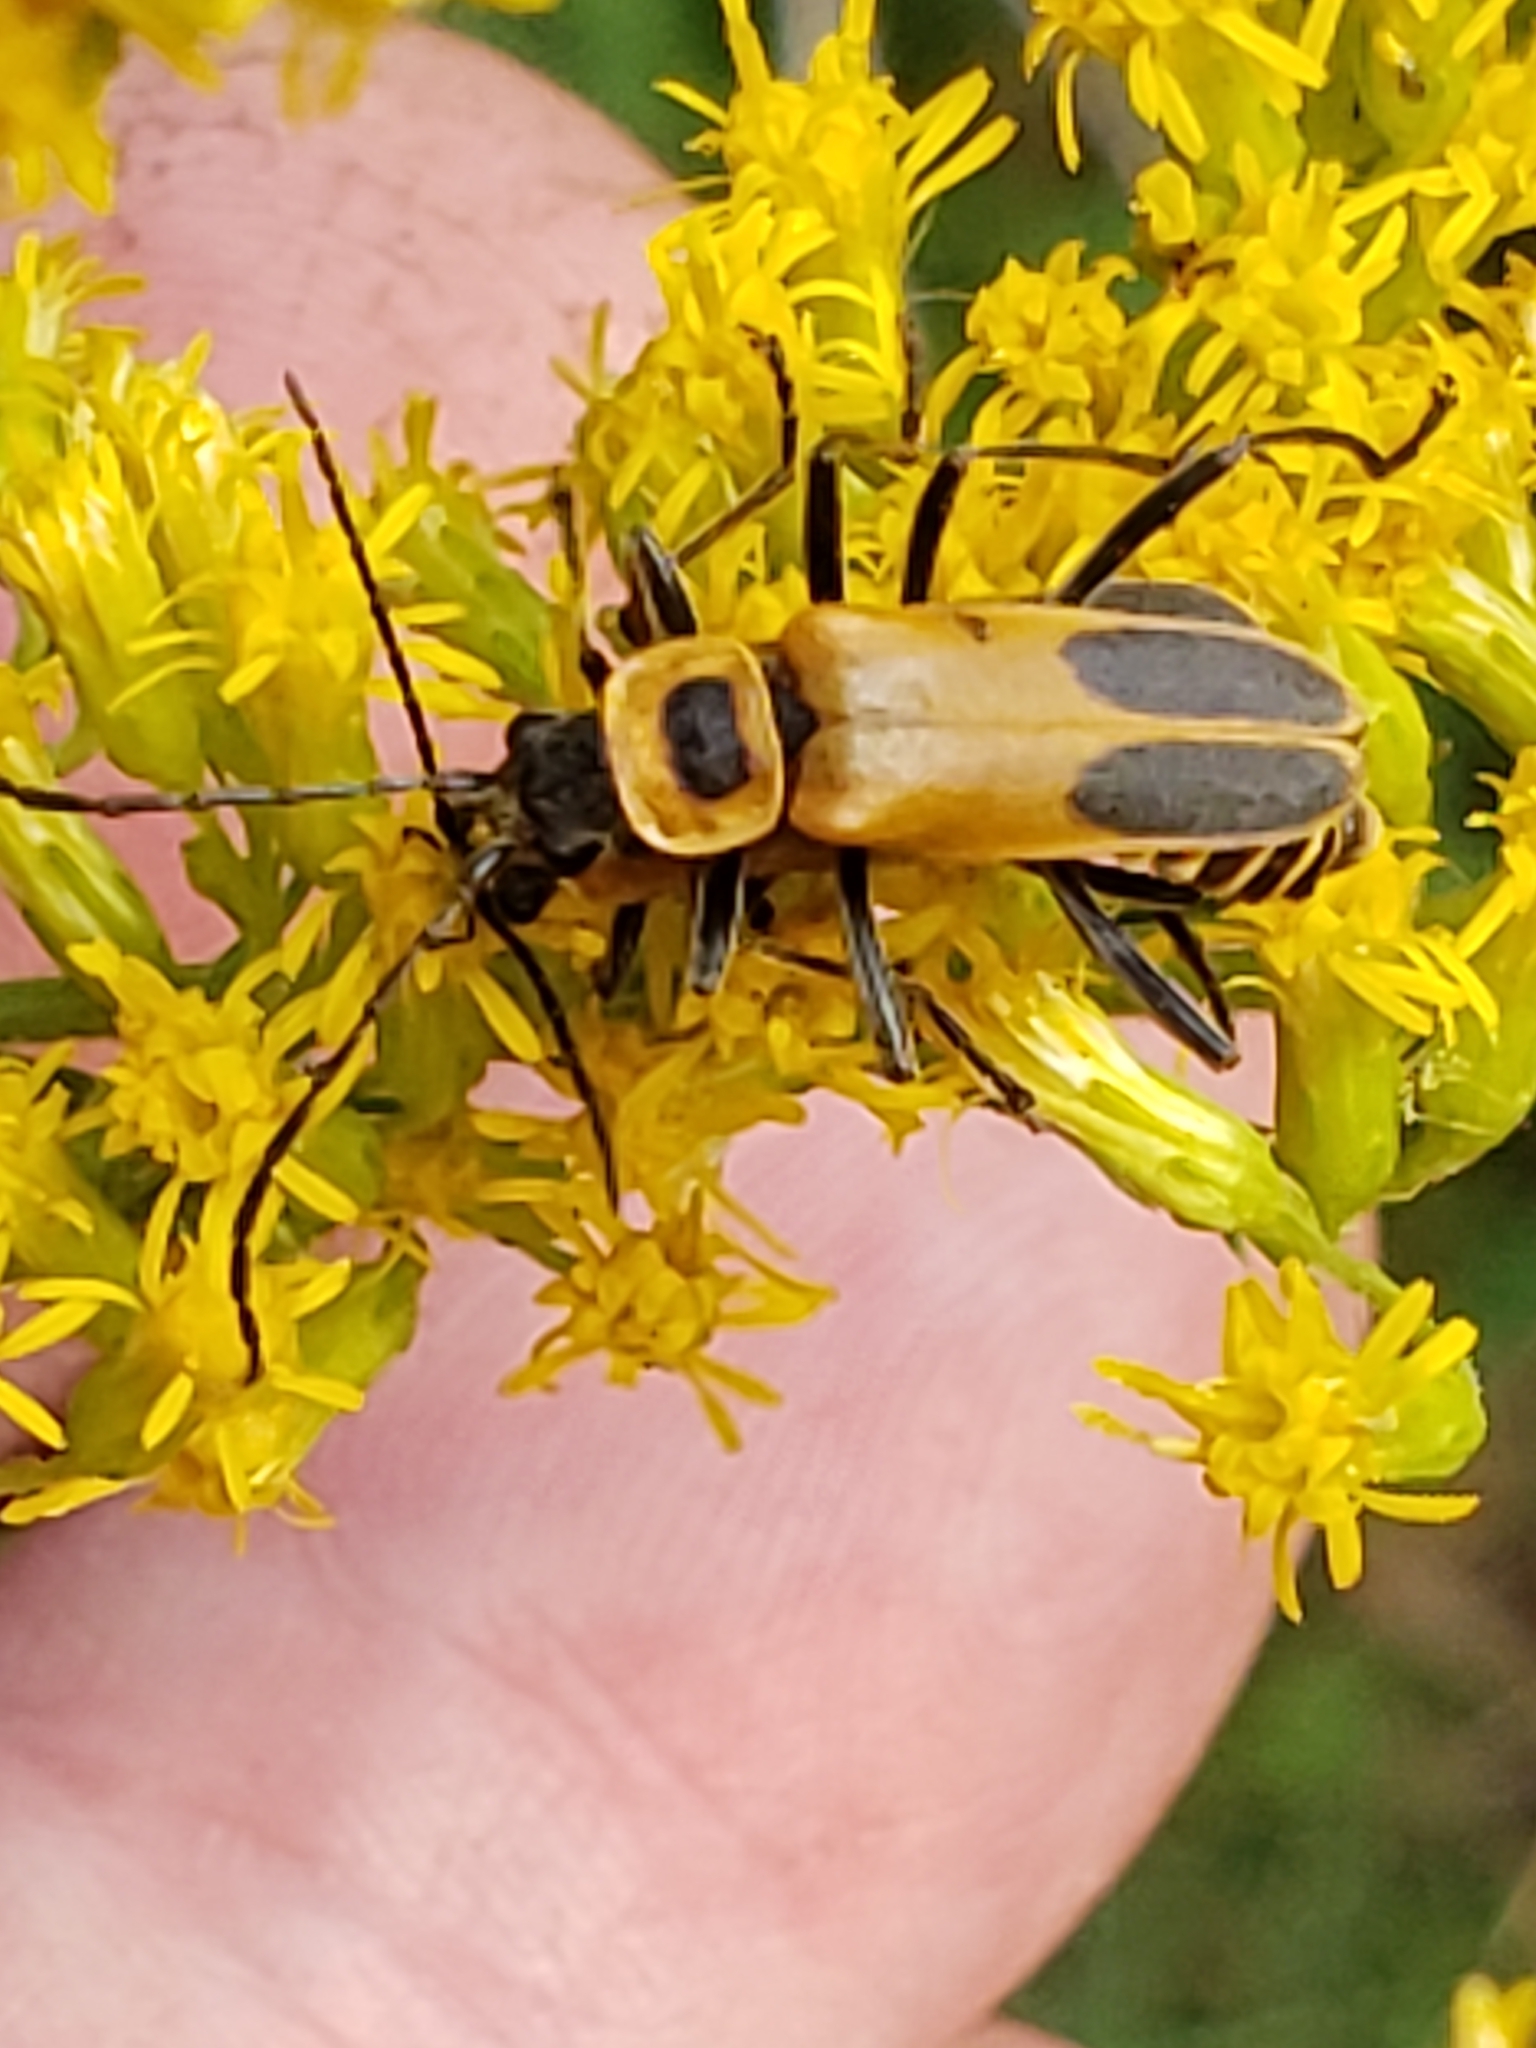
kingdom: Animalia
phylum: Arthropoda
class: Insecta
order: Coleoptera
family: Cantharidae
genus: Chauliognathus
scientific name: Chauliognathus pensylvanicus
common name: Goldenrod soldier beetle
